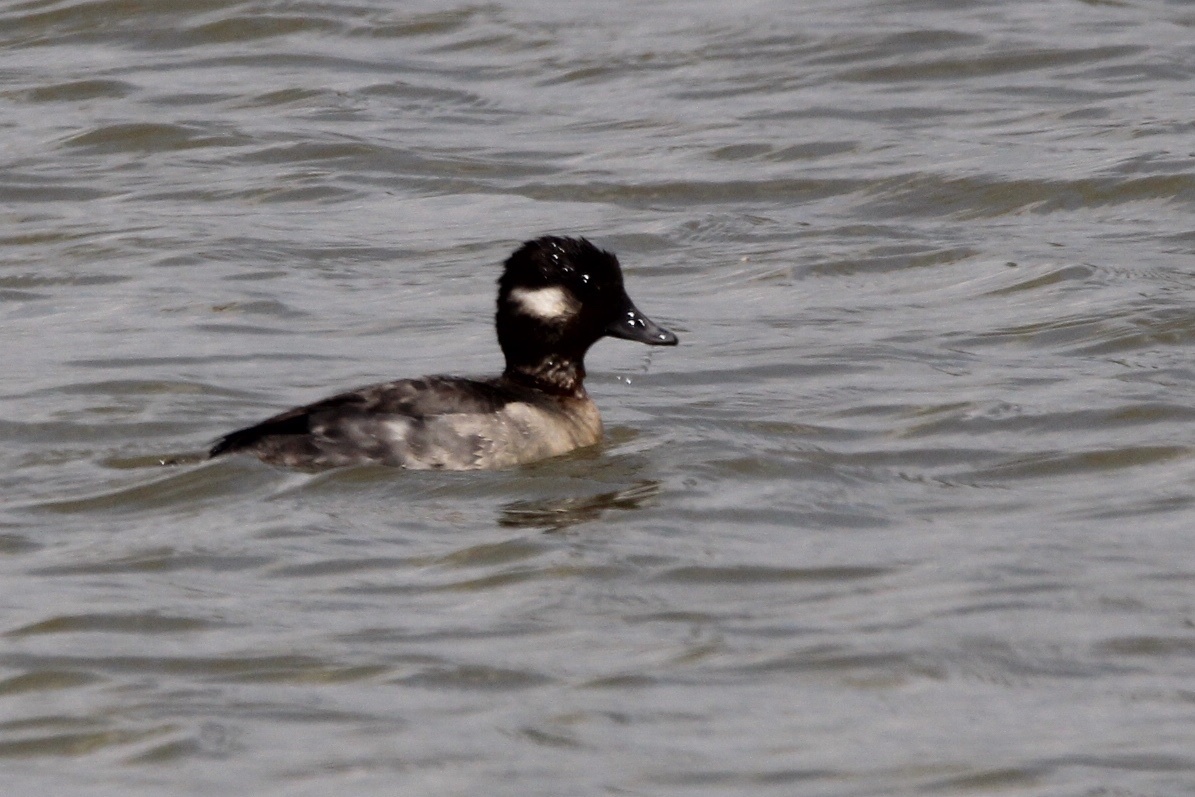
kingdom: Animalia
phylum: Chordata
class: Aves
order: Anseriformes
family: Anatidae
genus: Bucephala
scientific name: Bucephala albeola
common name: Bufflehead
